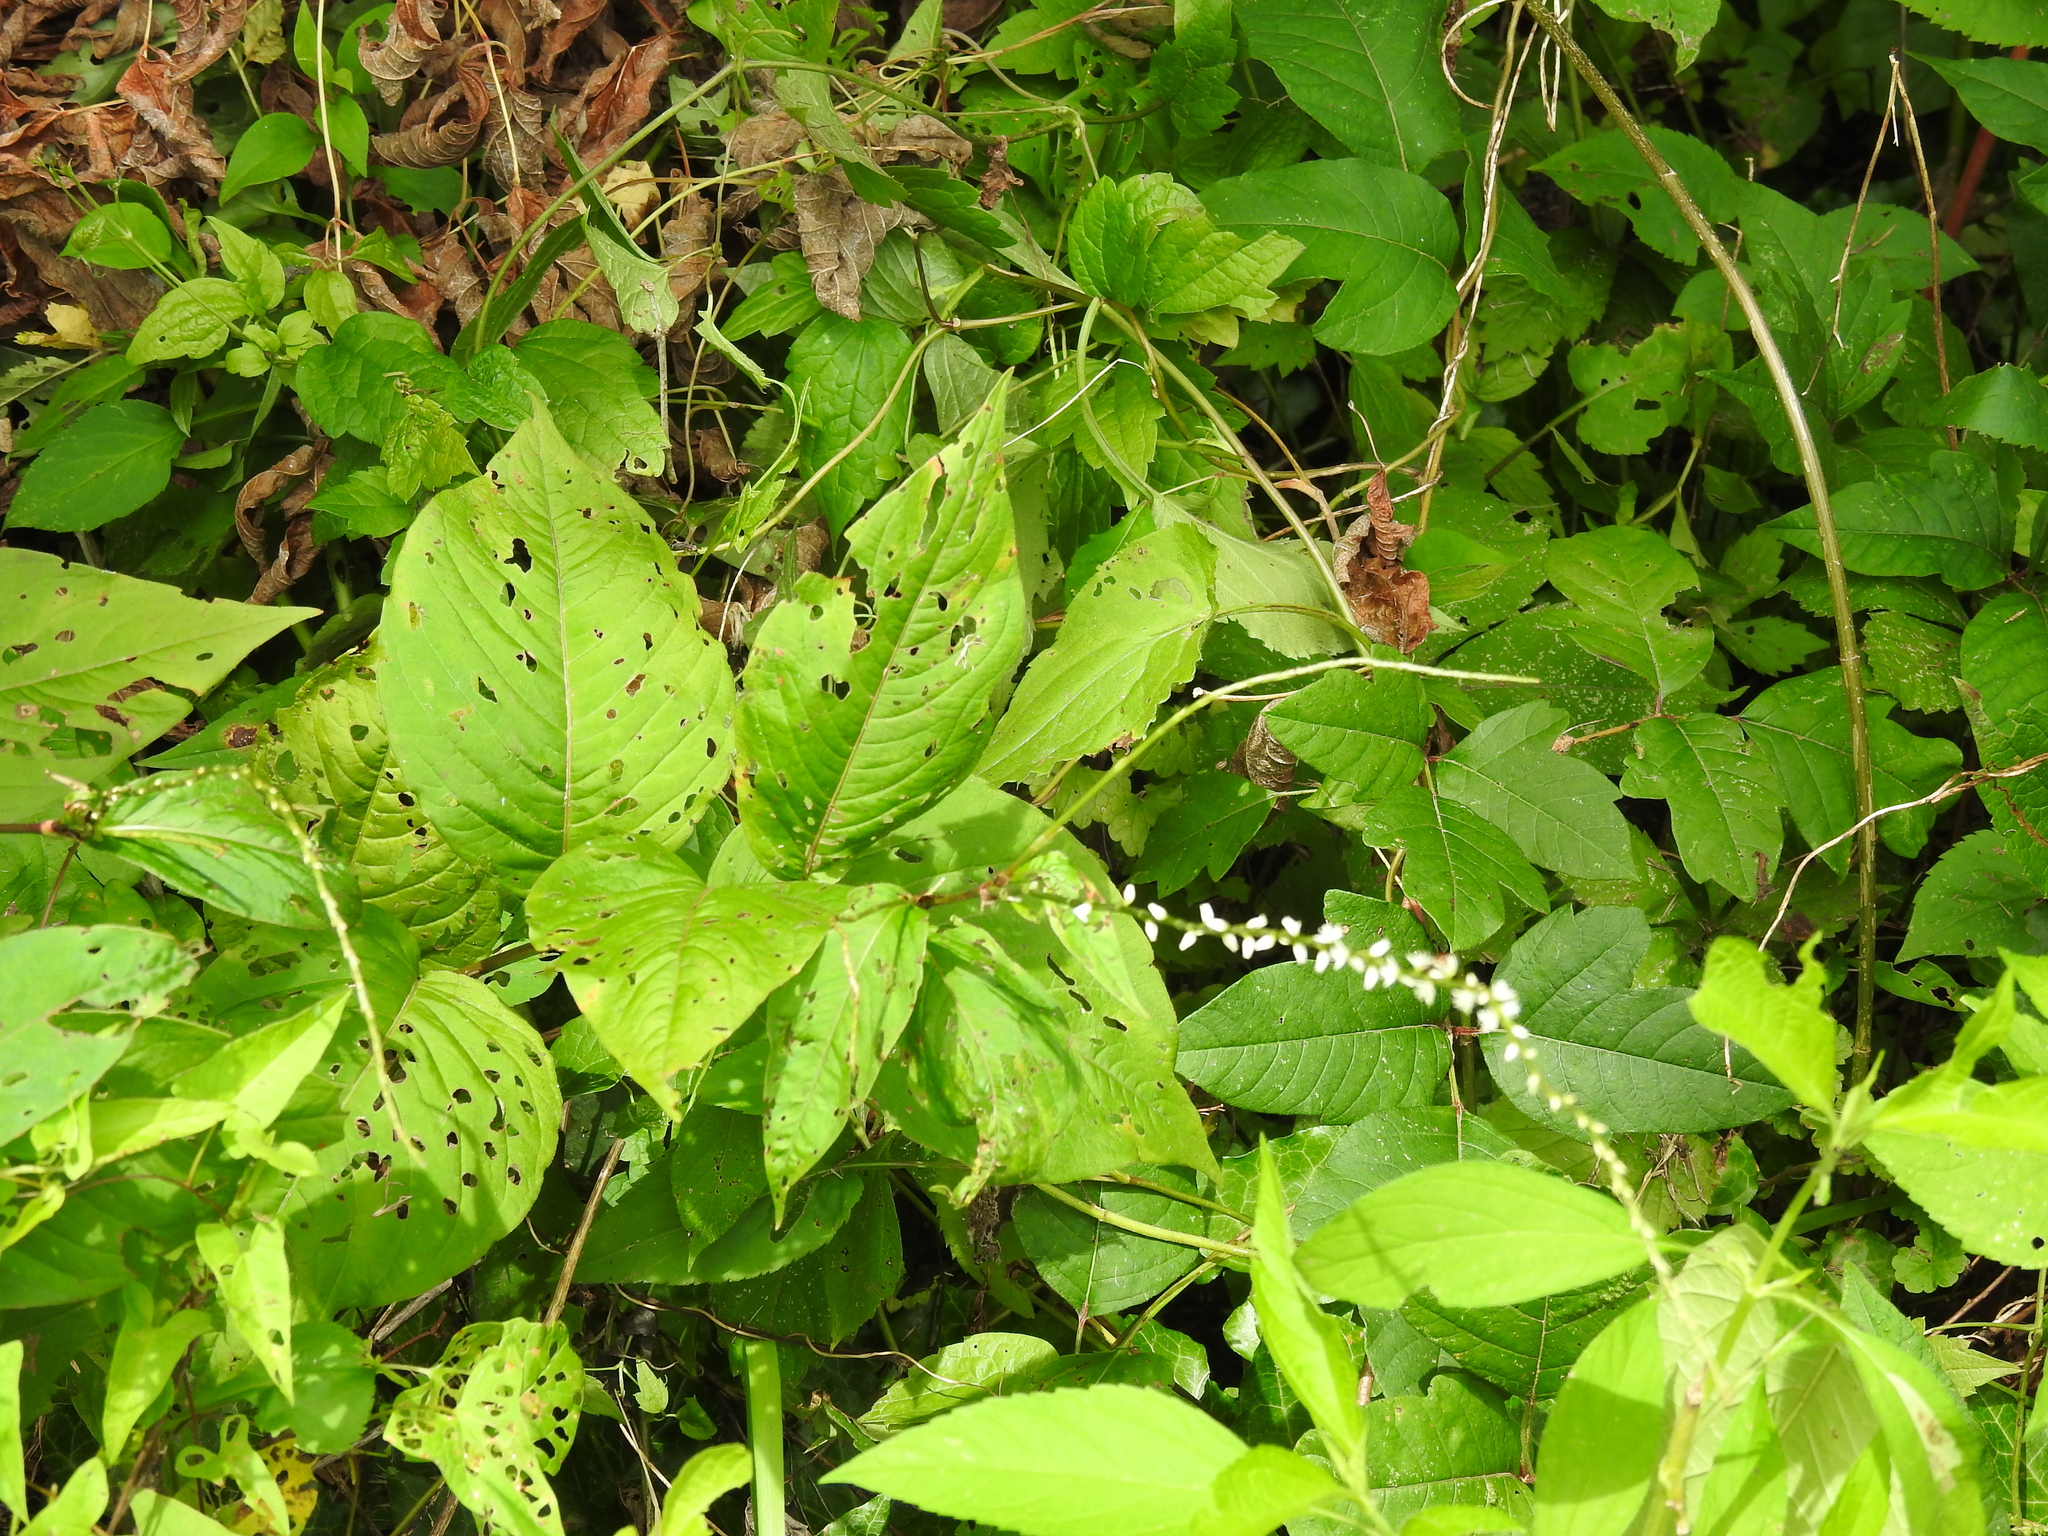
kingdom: Plantae
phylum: Tracheophyta
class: Magnoliopsida
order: Caryophyllales
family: Polygonaceae
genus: Persicaria
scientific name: Persicaria virginiana
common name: Jumpseed
